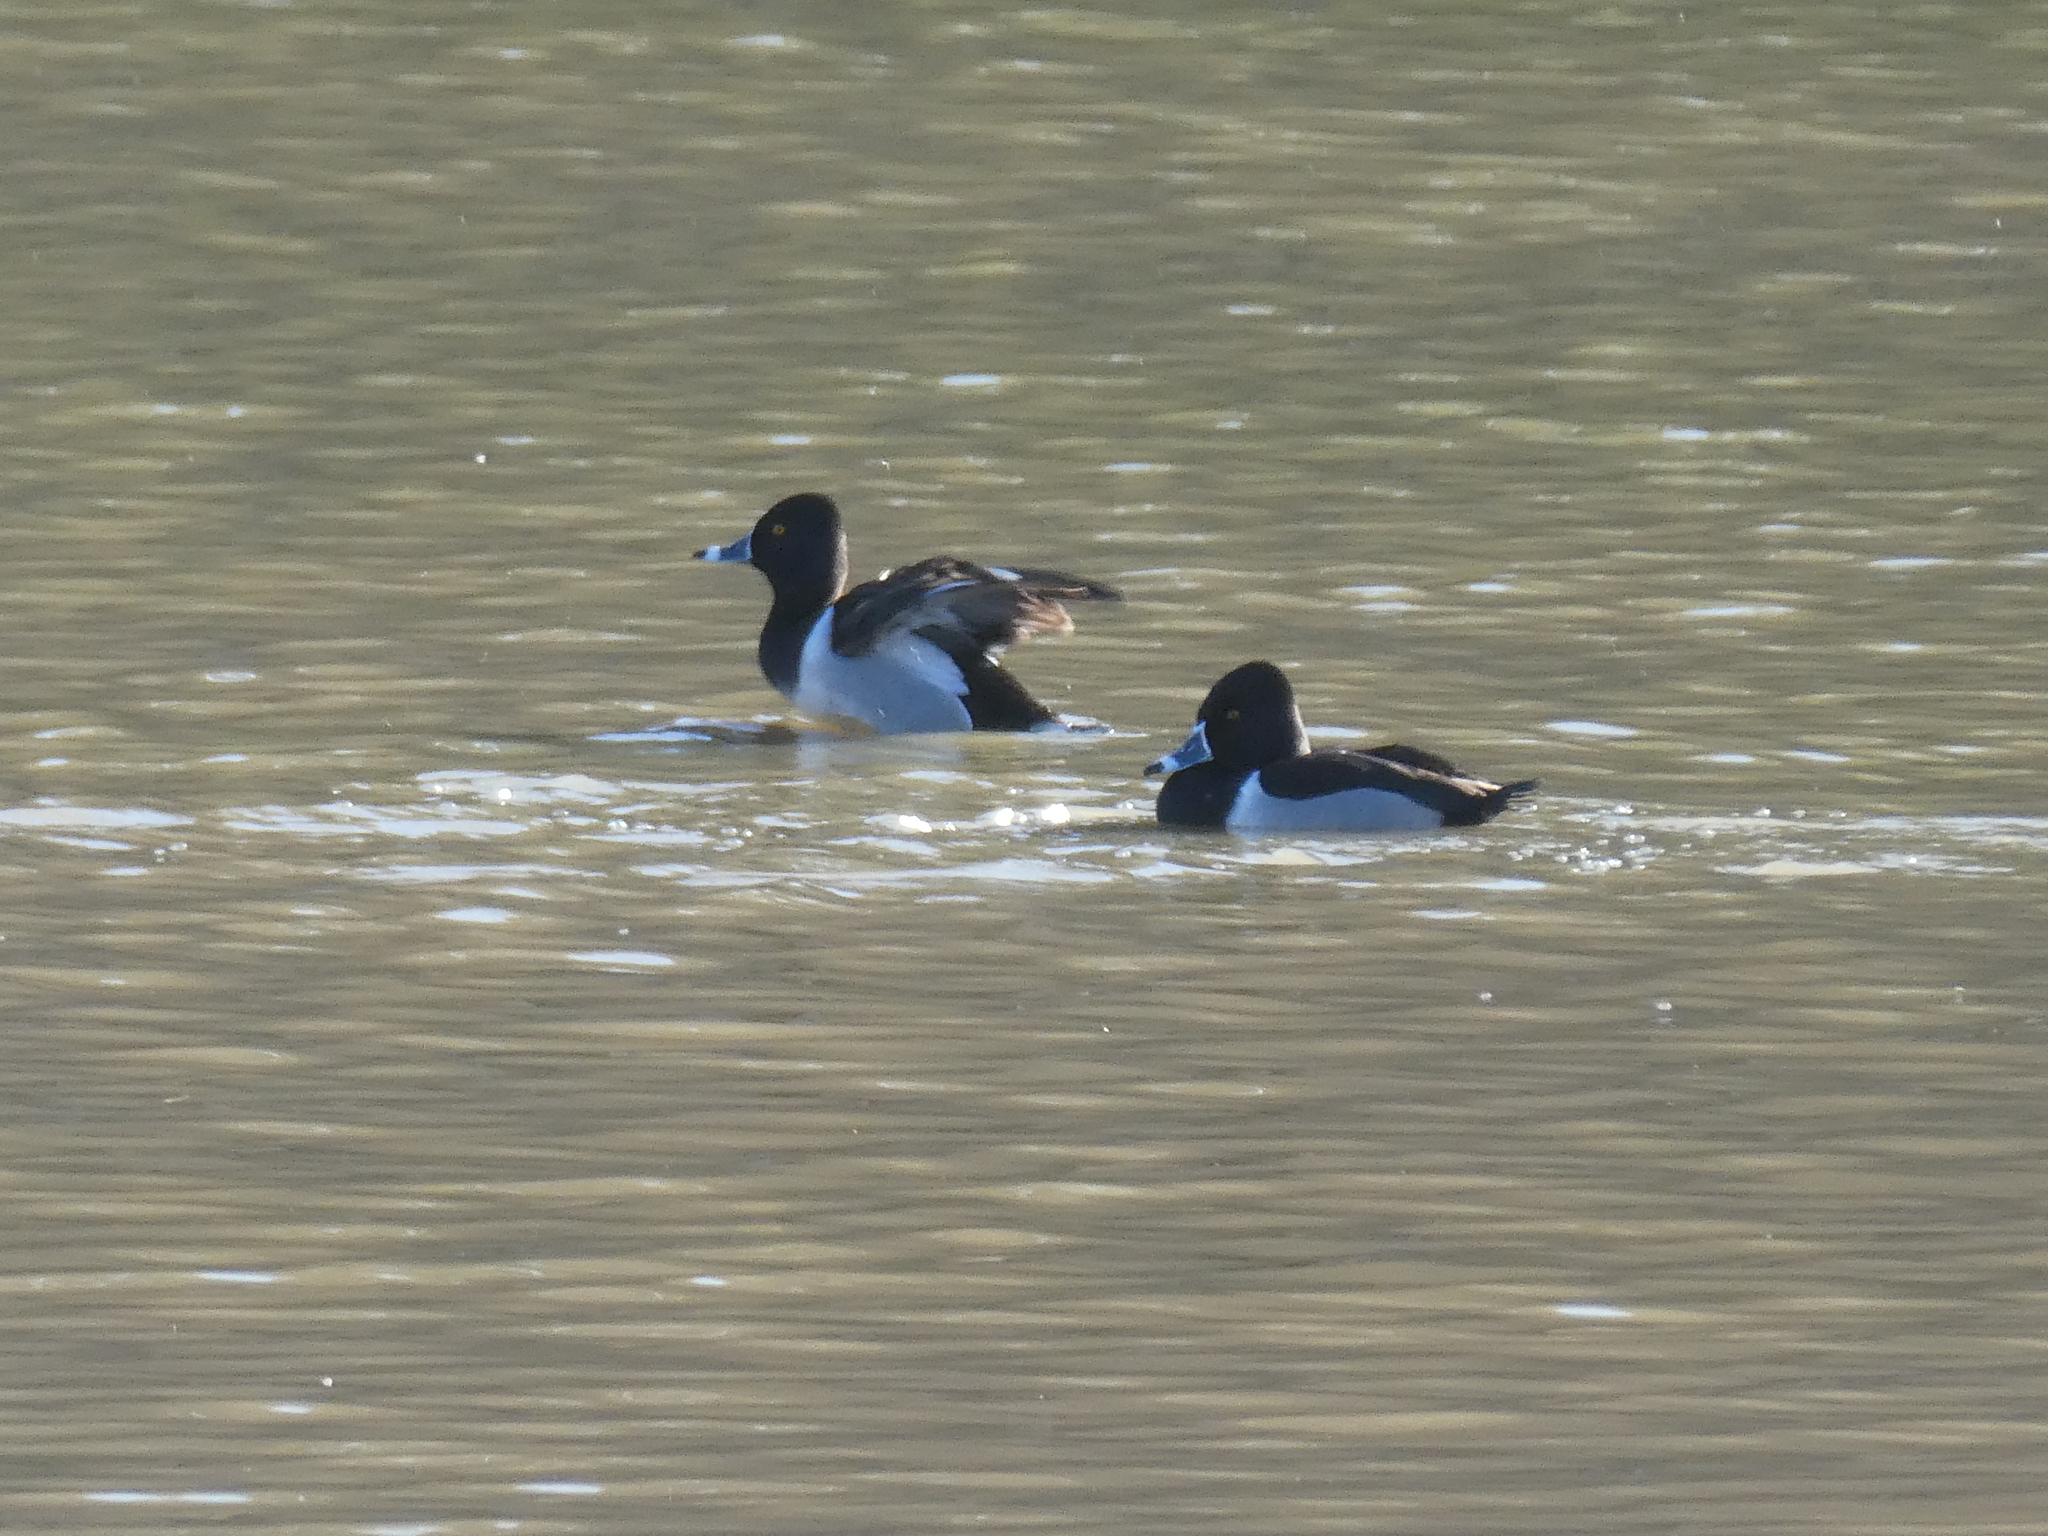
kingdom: Animalia
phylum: Chordata
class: Aves
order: Anseriformes
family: Anatidae
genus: Aythya
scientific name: Aythya collaris
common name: Ring-necked duck
